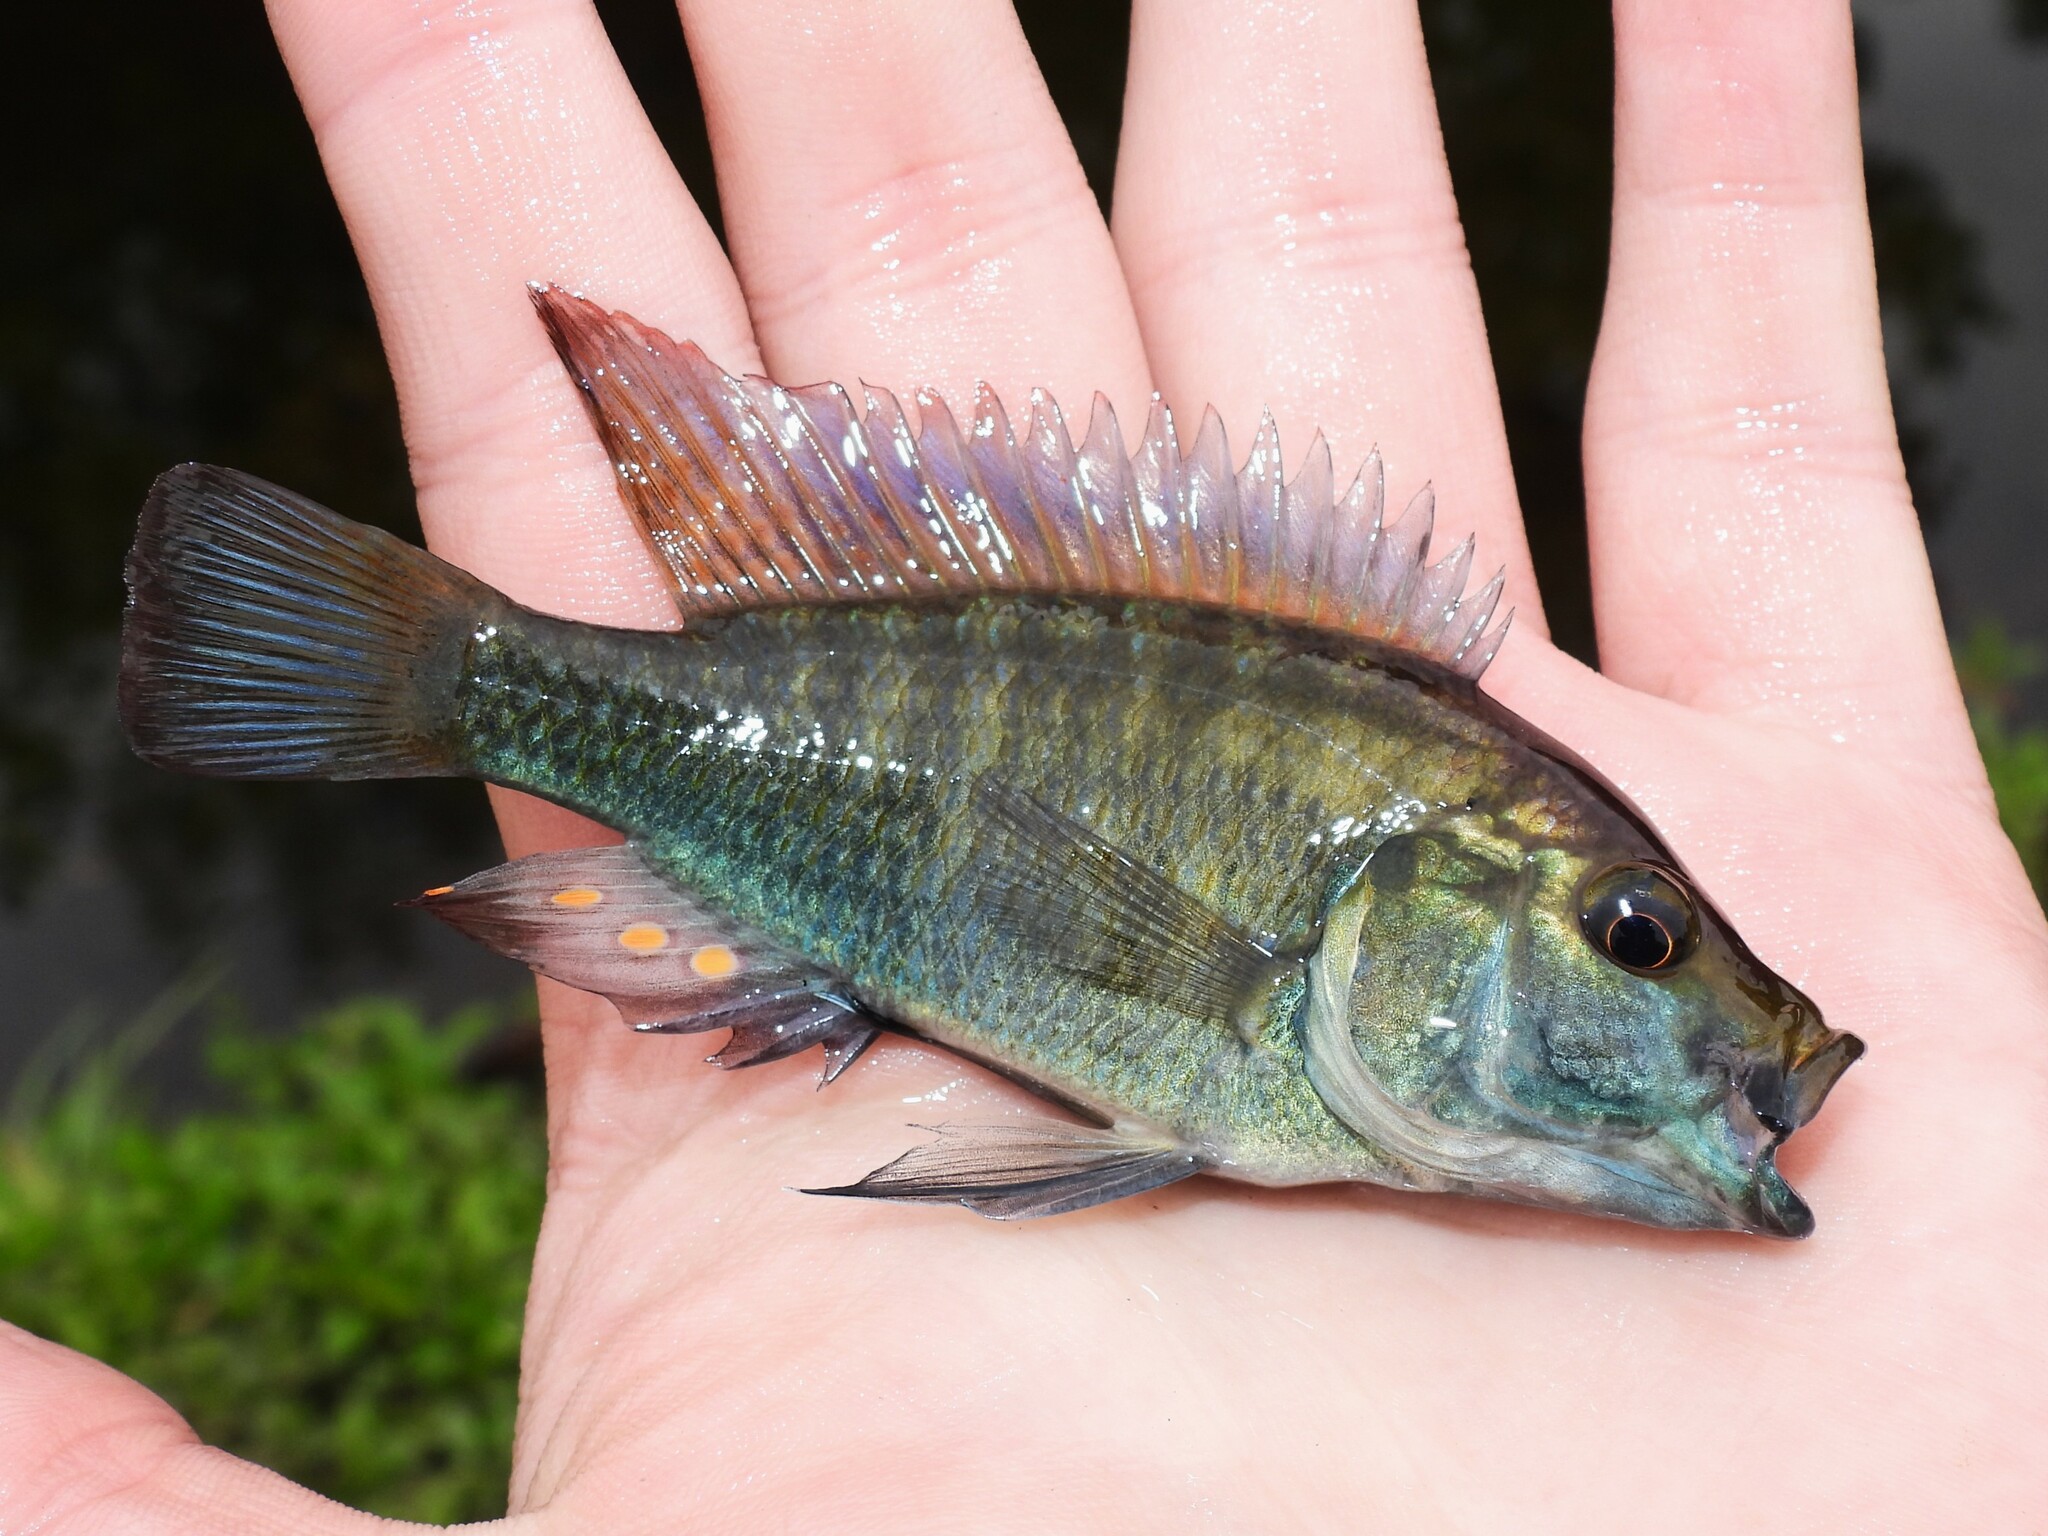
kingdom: Animalia
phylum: Chordata
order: Perciformes
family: Cichlidae
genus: Astatotilapia
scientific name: Astatotilapia calliptera
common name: Eastern happy
